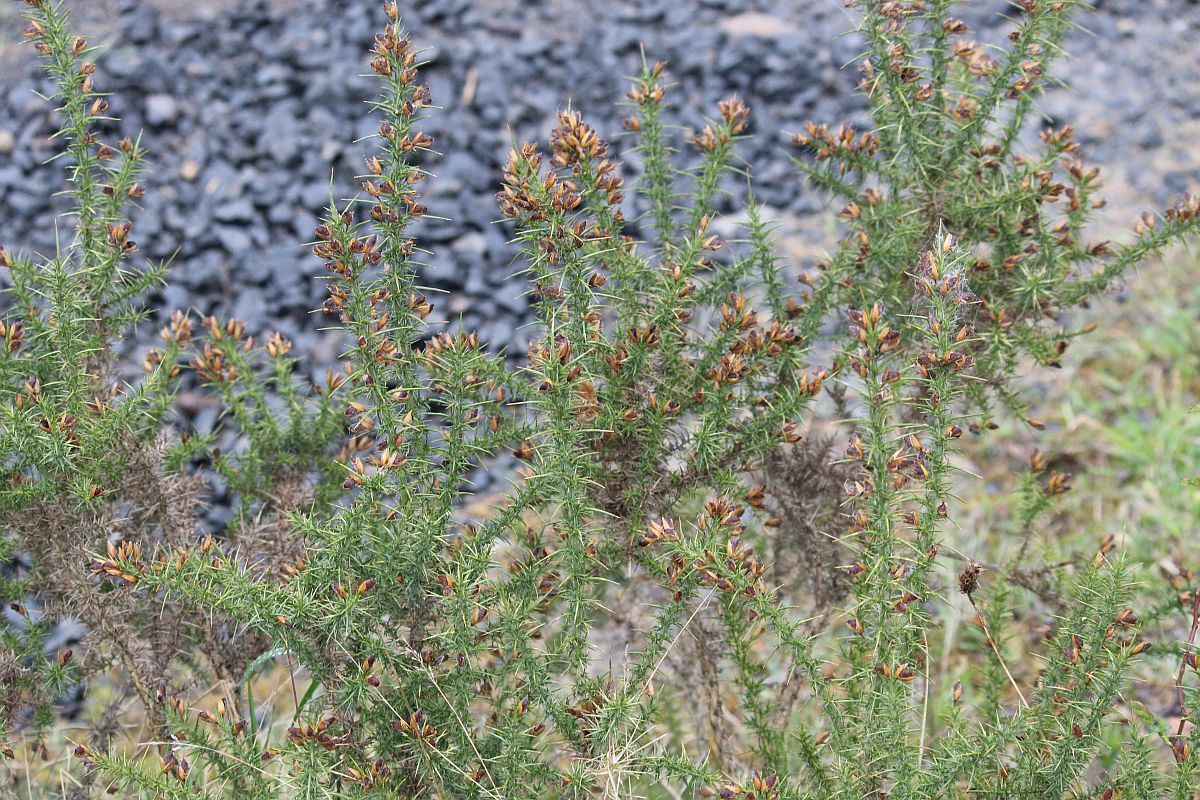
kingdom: Plantae
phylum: Tracheophyta
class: Magnoliopsida
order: Fabales
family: Fabaceae
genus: Ulex
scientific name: Ulex gallii
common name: Western gorse
